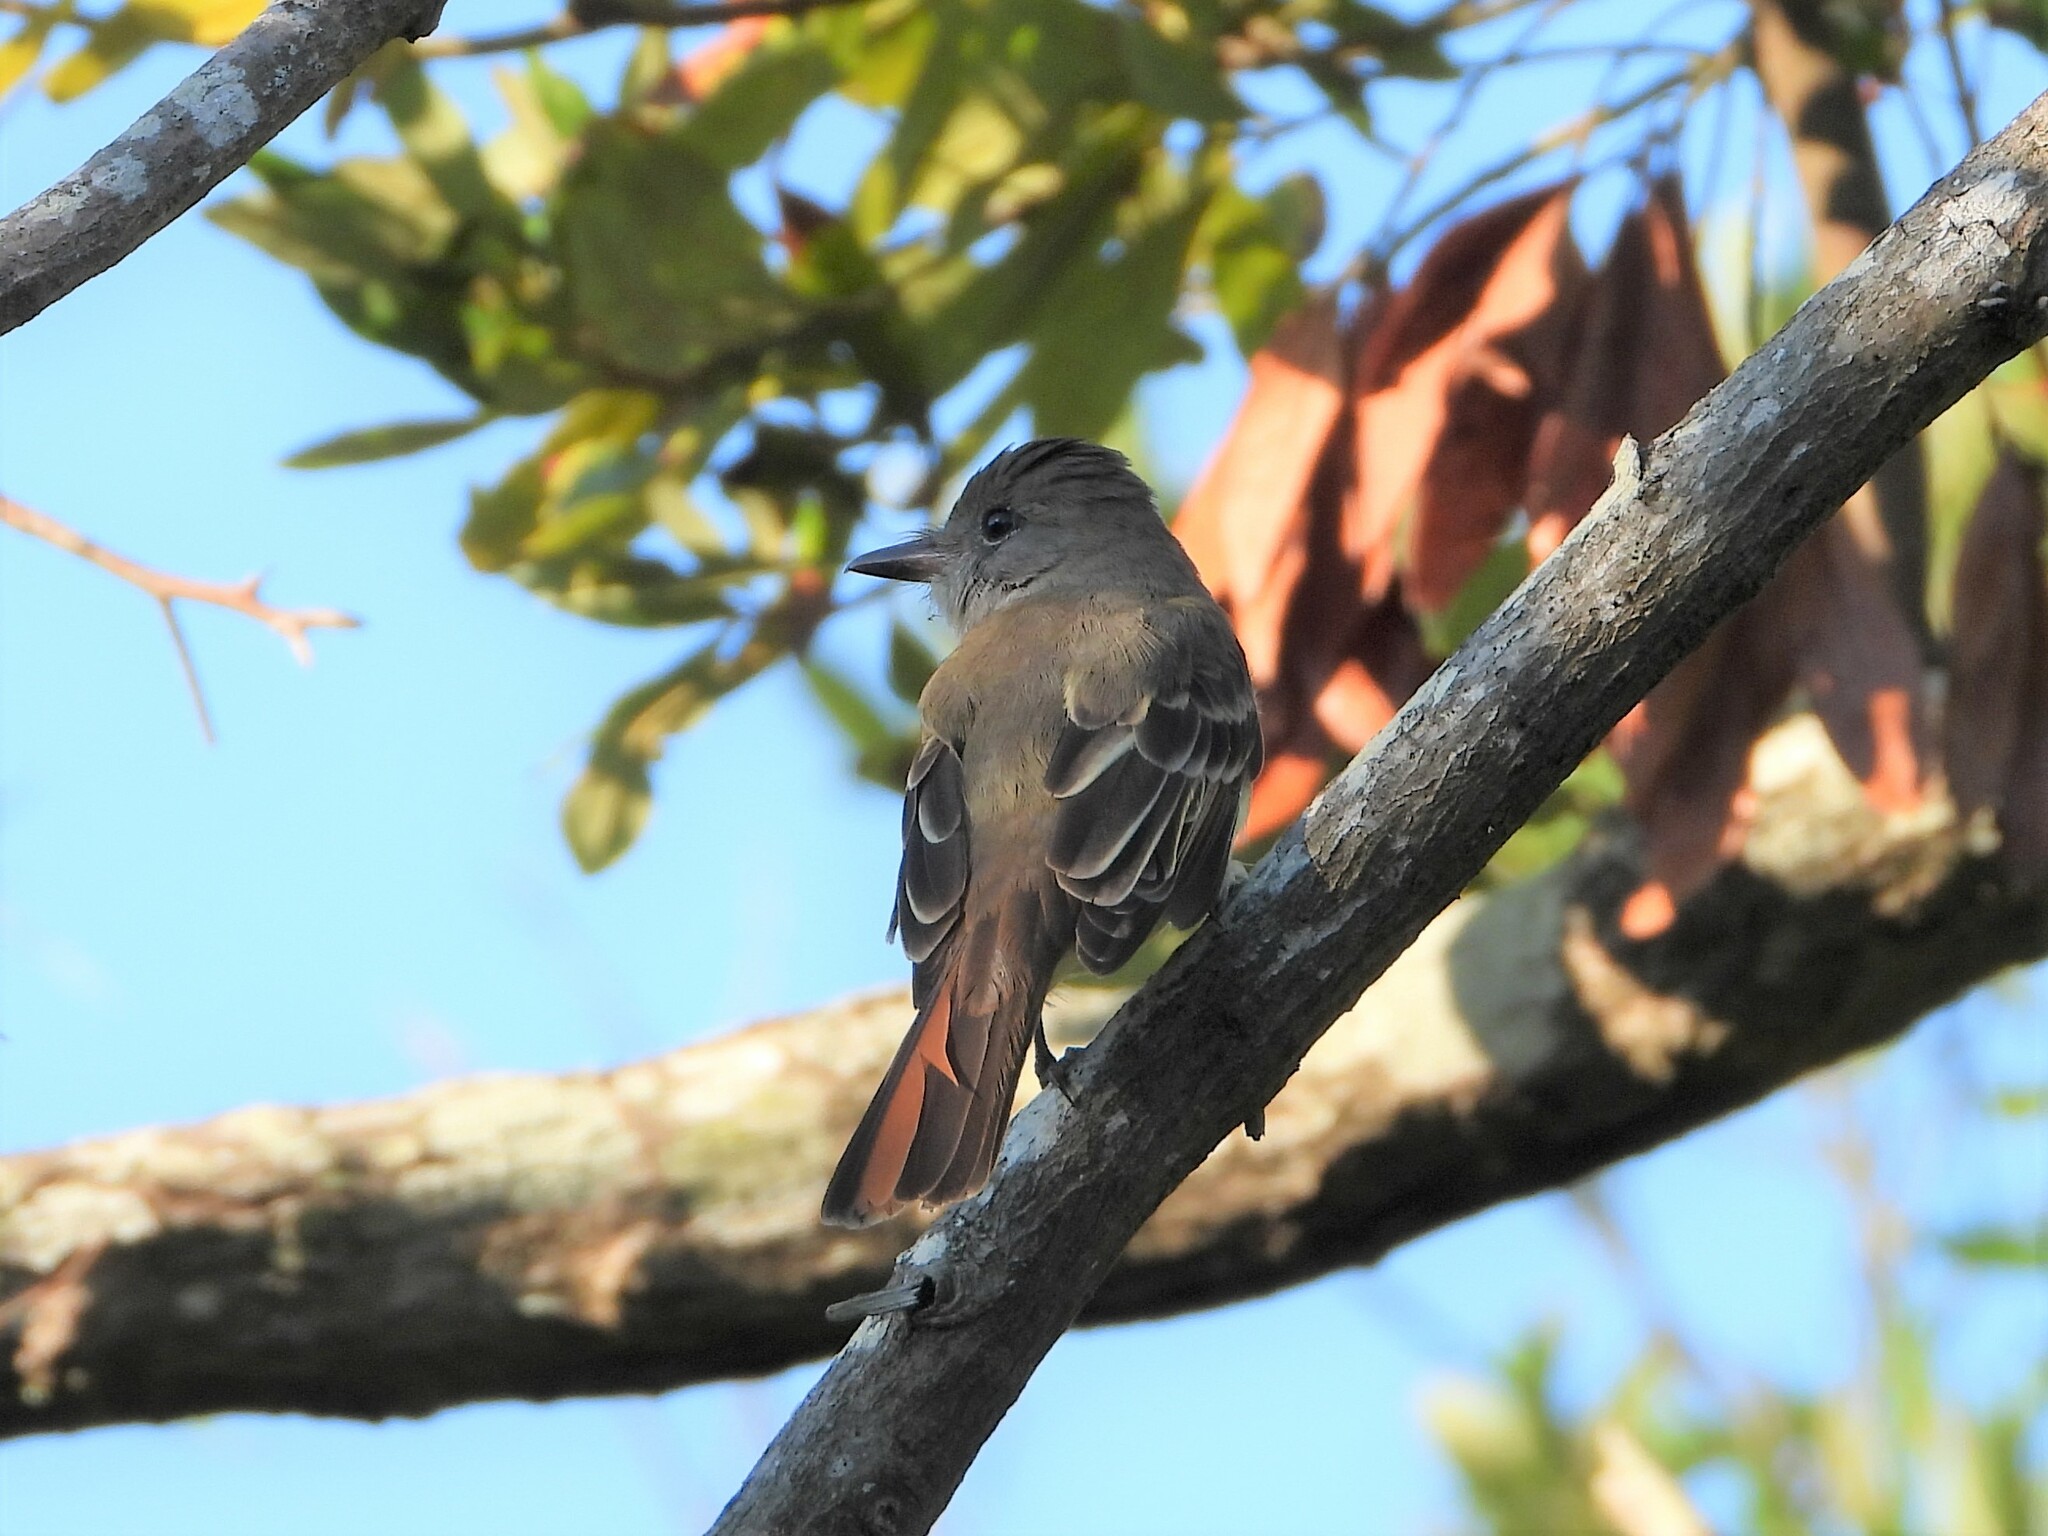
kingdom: Animalia
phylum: Chordata
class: Aves
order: Passeriformes
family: Tyrannidae
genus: Myiarchus
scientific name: Myiarchus crinitus
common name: Great crested flycatcher
